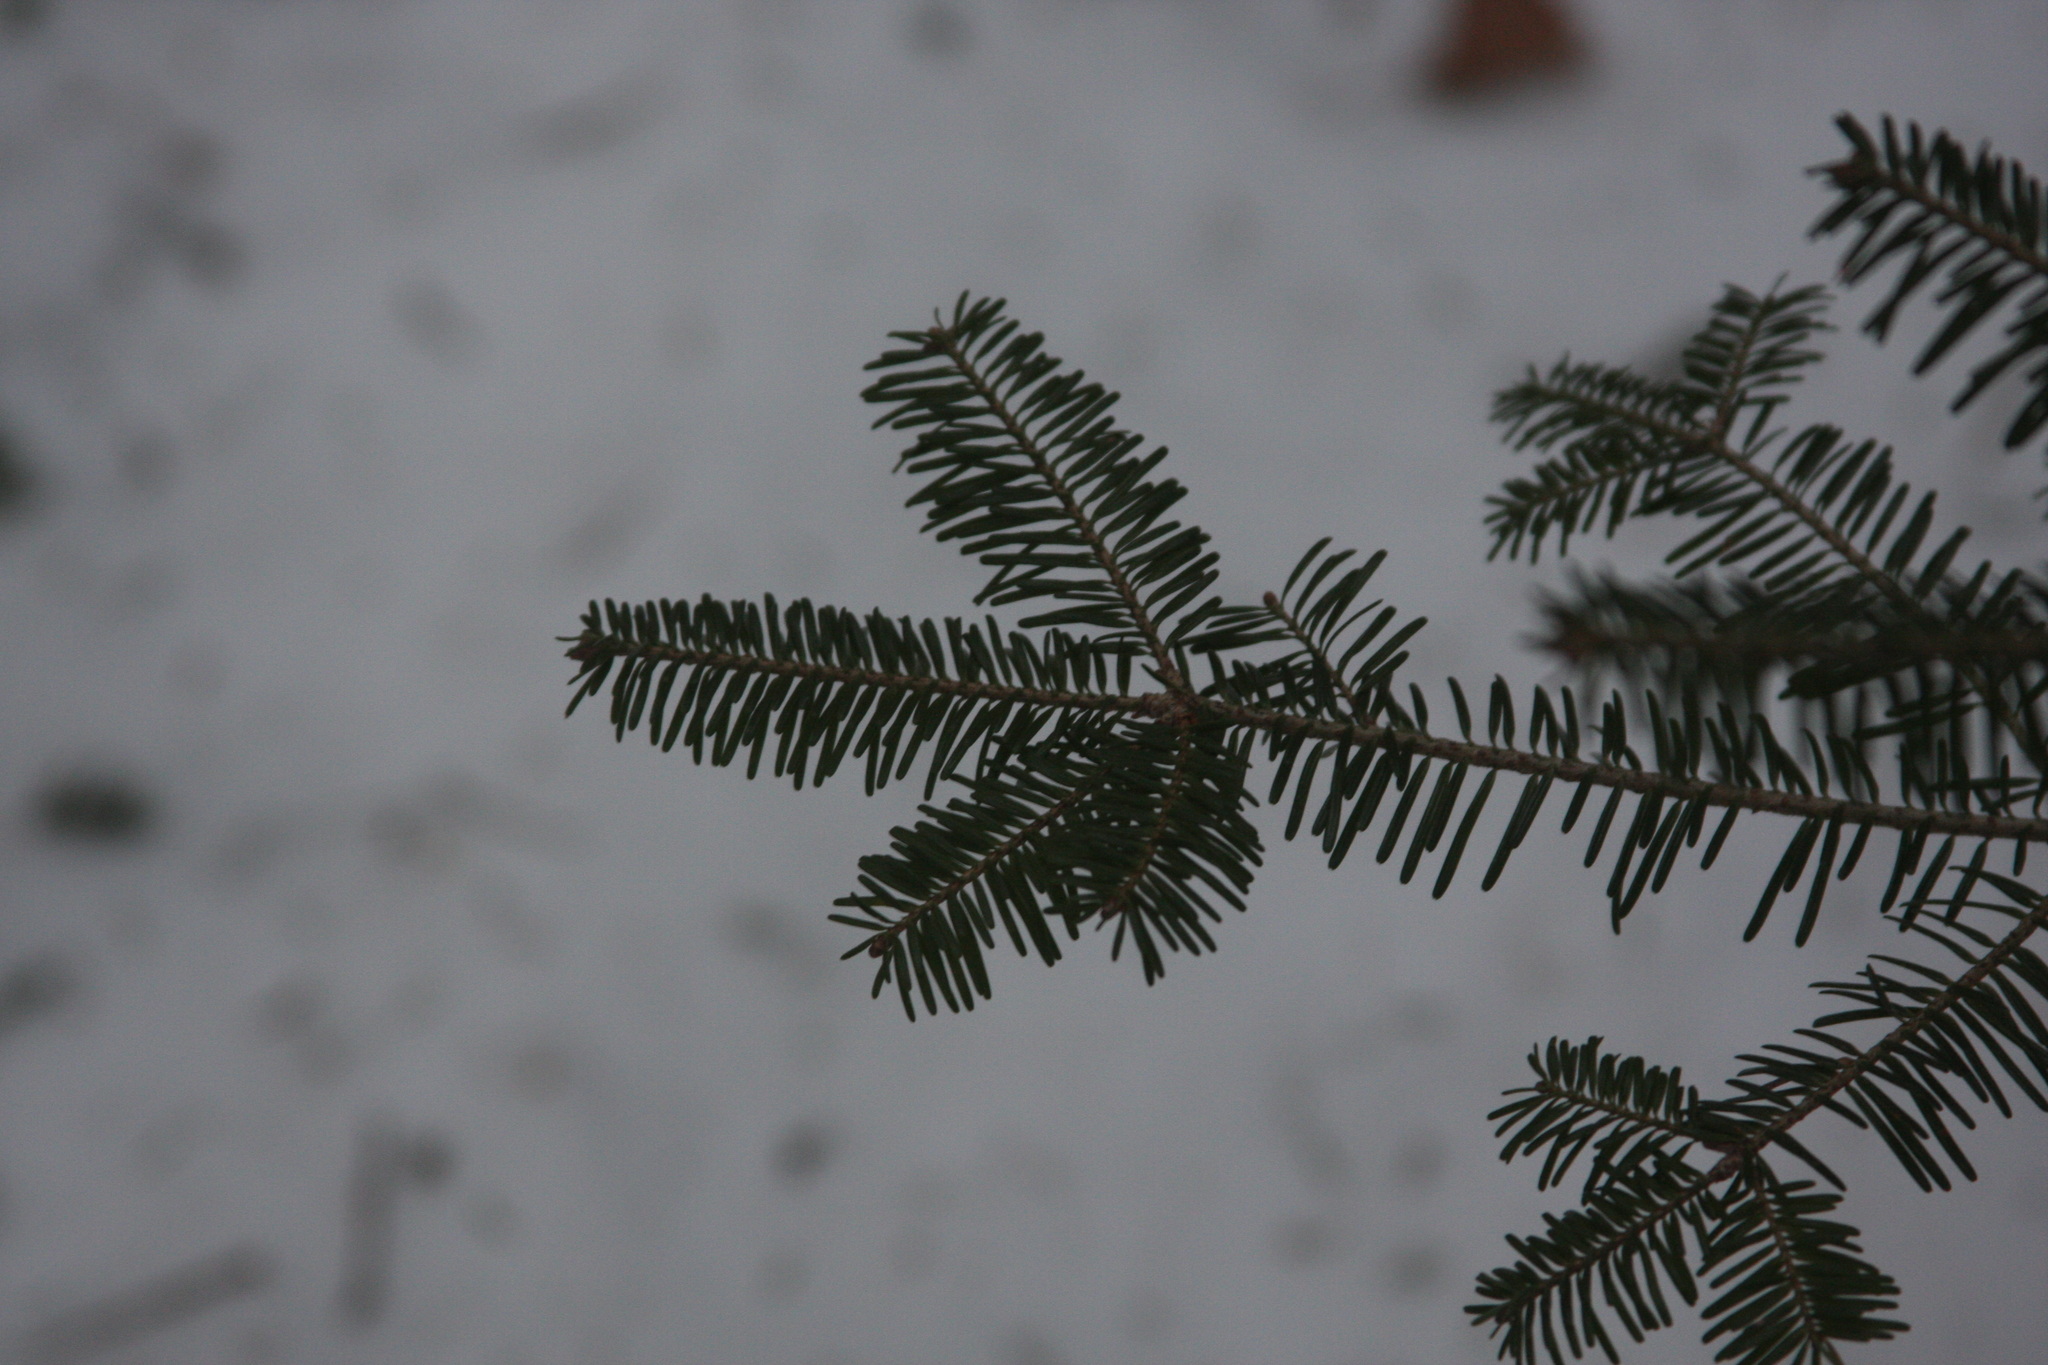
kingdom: Plantae
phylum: Tracheophyta
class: Pinopsida
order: Pinales
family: Pinaceae
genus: Abies
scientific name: Abies balsamea
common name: Balsam fir
